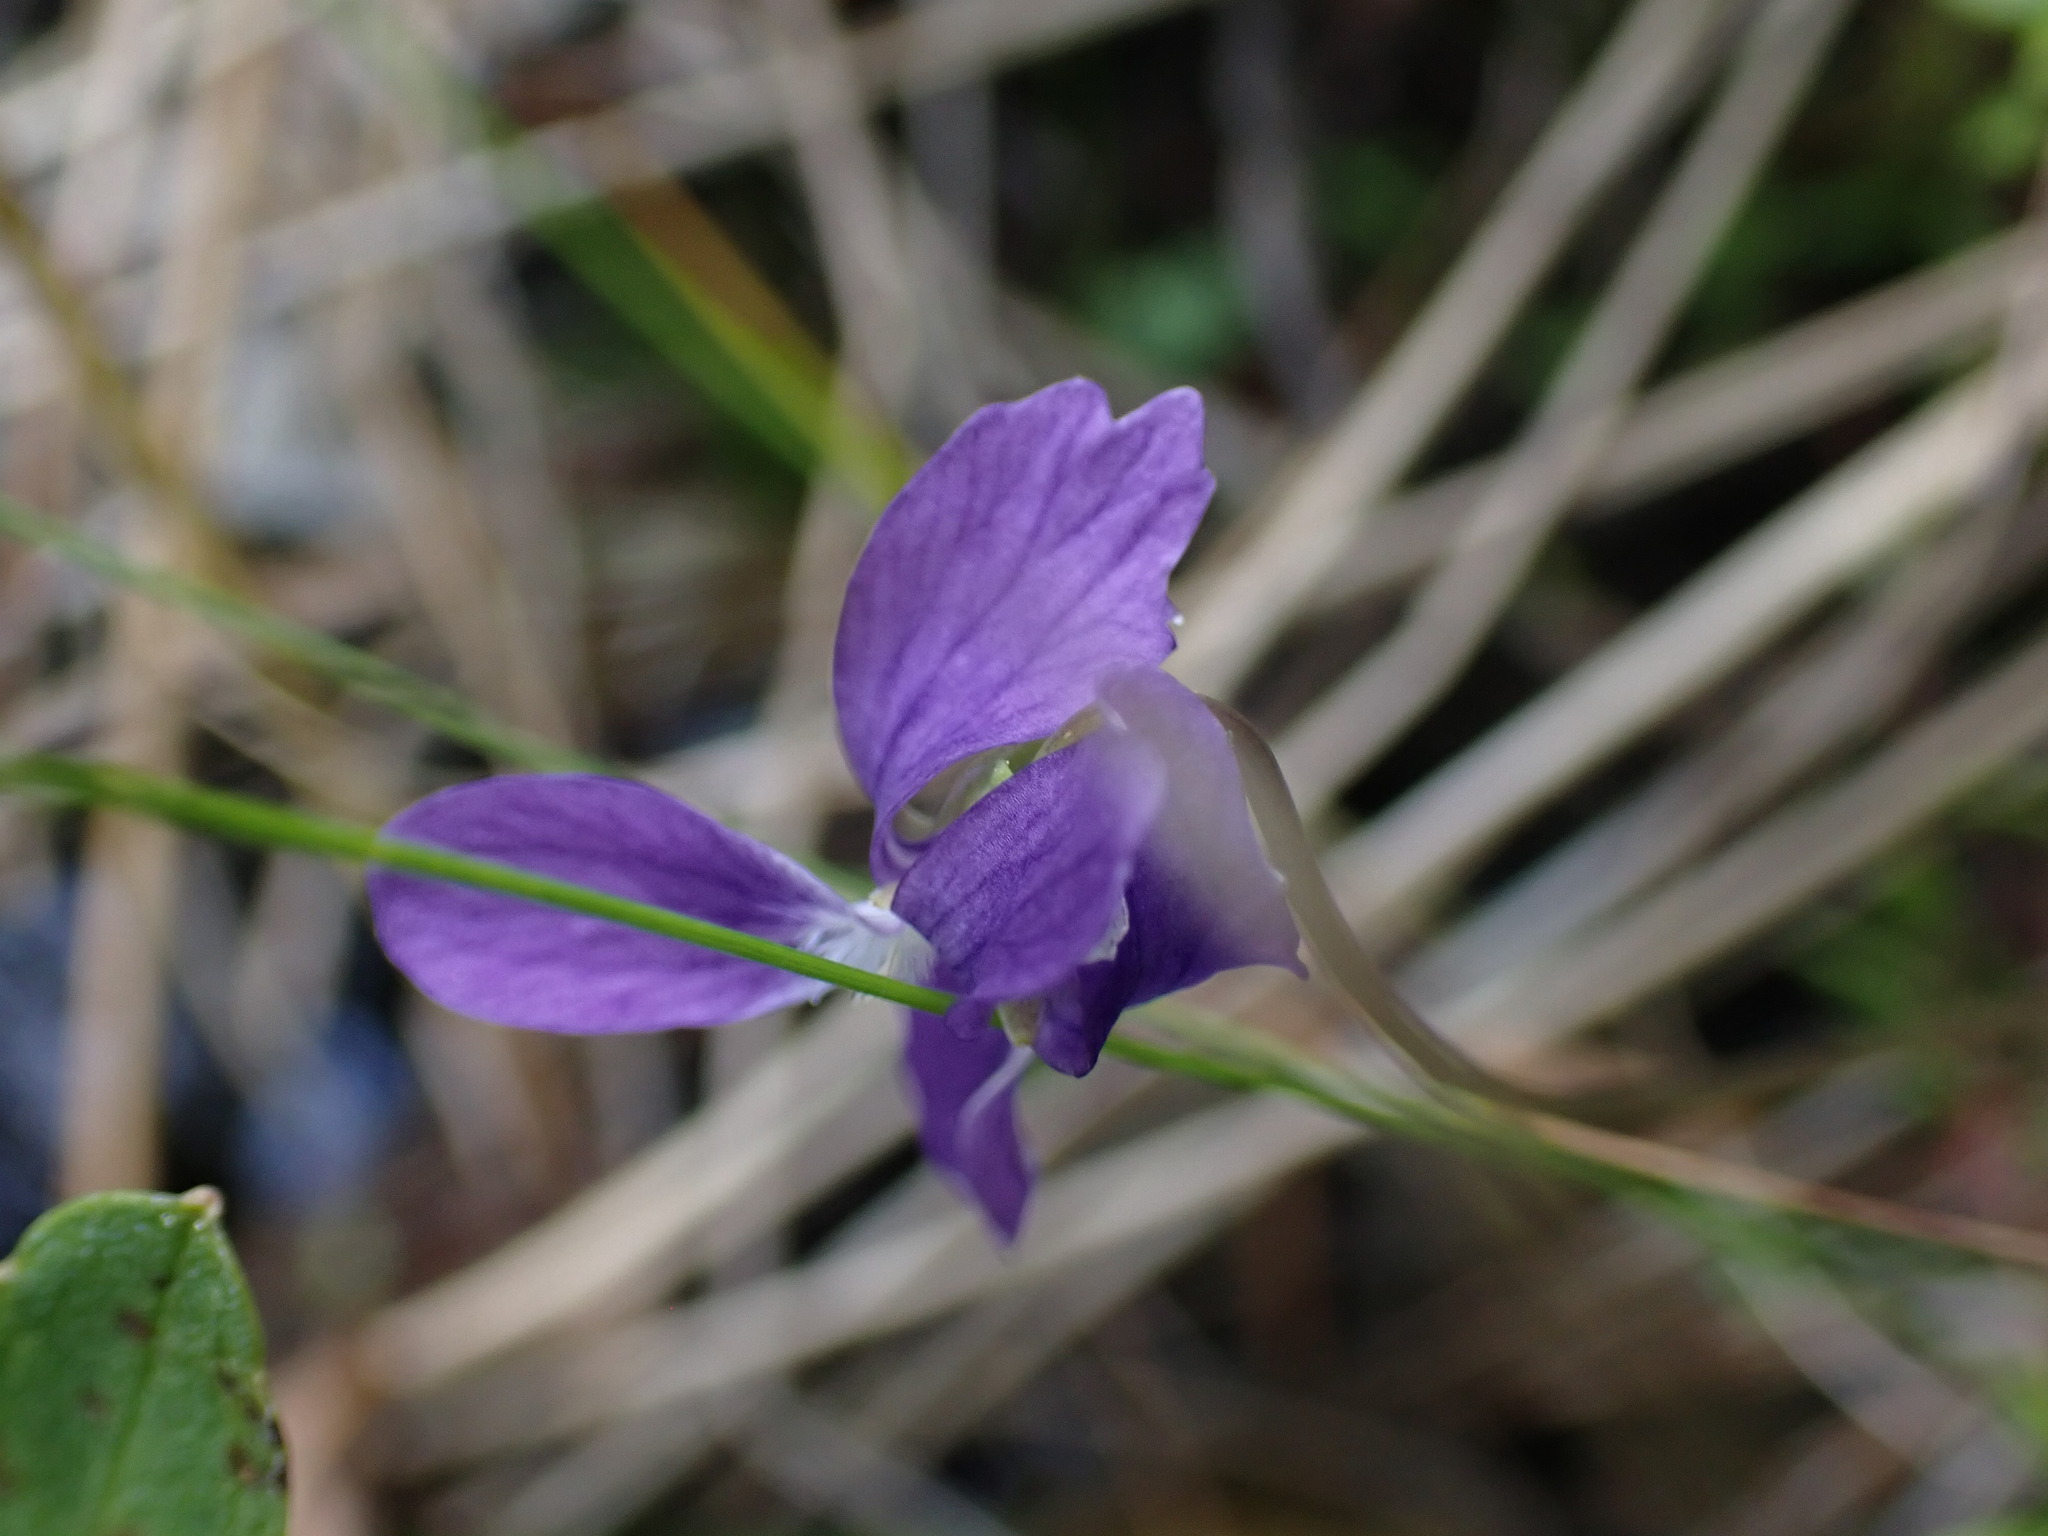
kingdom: Plantae
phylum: Tracheophyta
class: Magnoliopsida
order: Ranunculales
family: Ranunculaceae
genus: Clematis
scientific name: Clematis occidentalis
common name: Purple clematis
